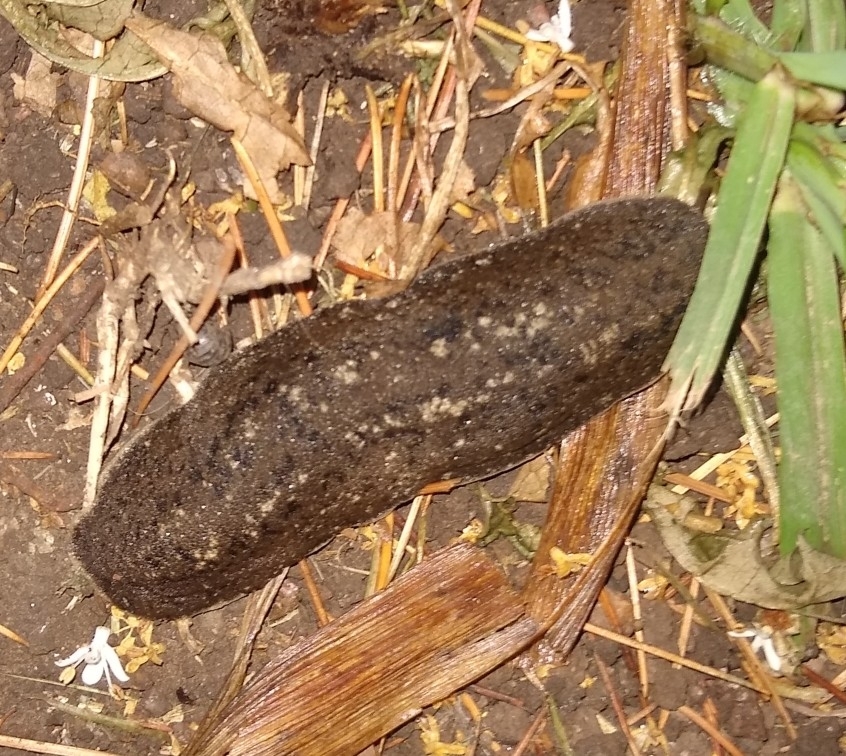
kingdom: Animalia
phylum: Mollusca
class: Gastropoda
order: Systellommatophora
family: Veronicellidae
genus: Phyllocaulis
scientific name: Phyllocaulis soleiformis
